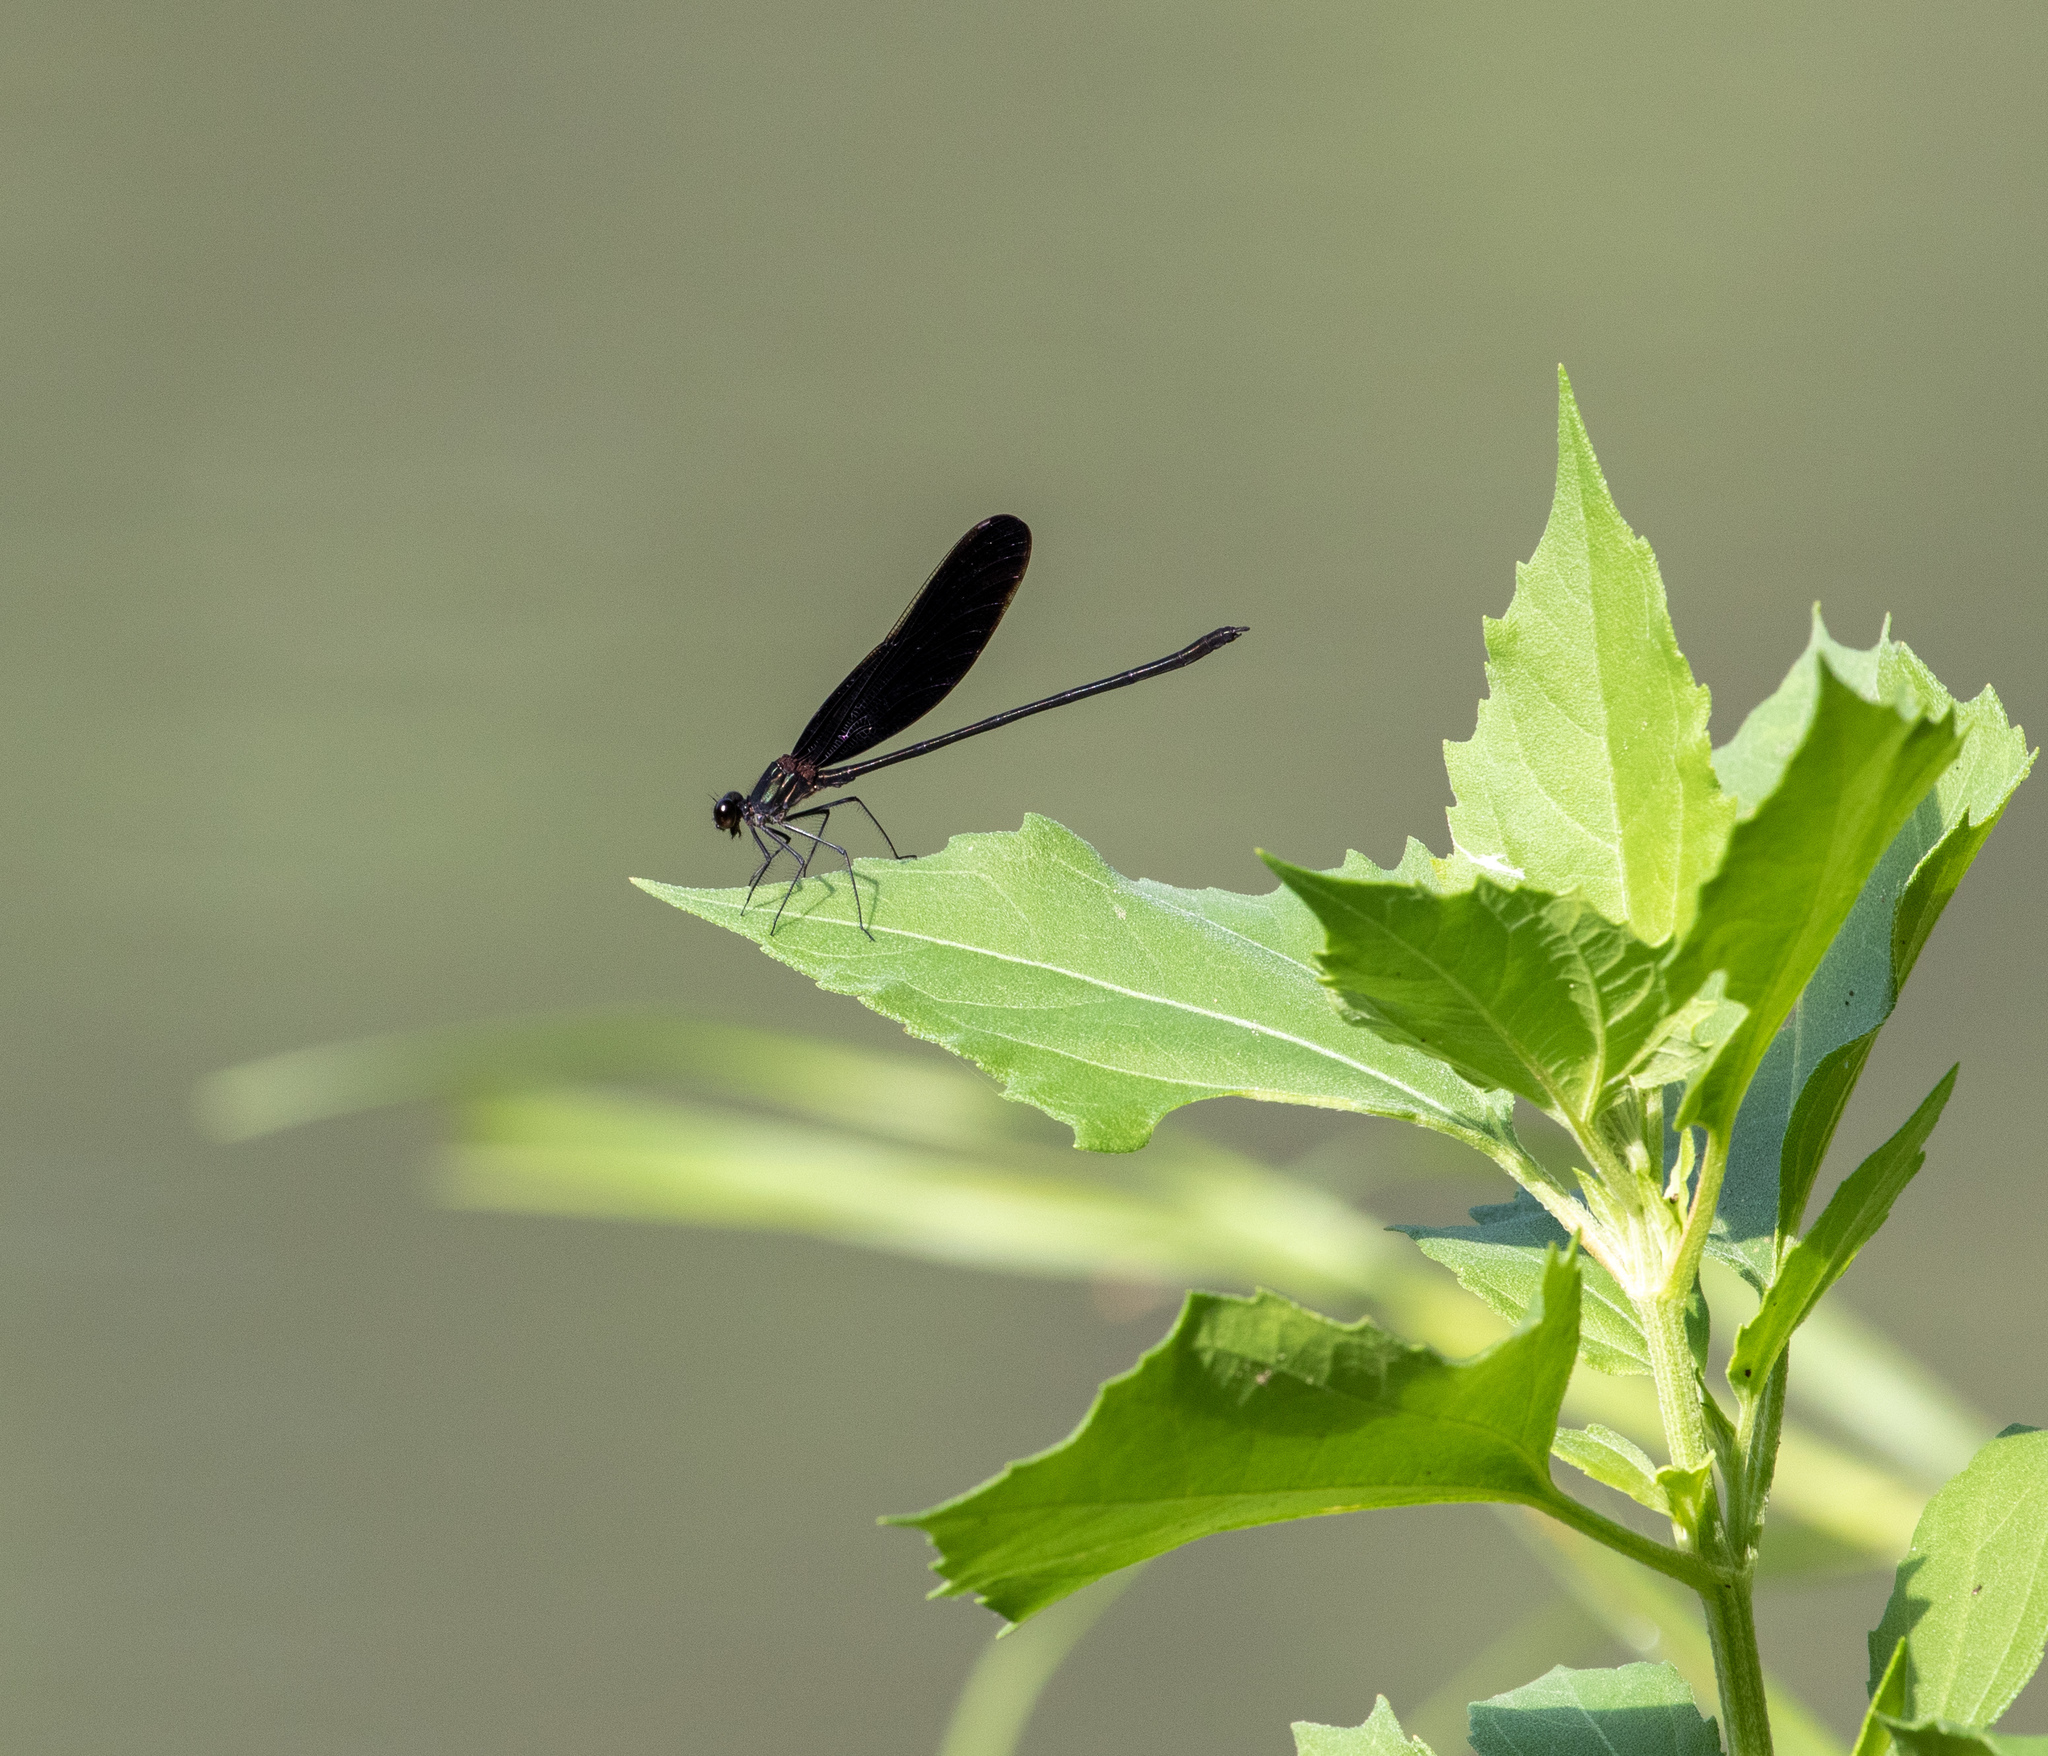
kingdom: Animalia
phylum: Arthropoda
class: Insecta
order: Odonata
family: Calopterygidae
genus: Hetaerina
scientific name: Hetaerina titia
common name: Smoky rubyspot
